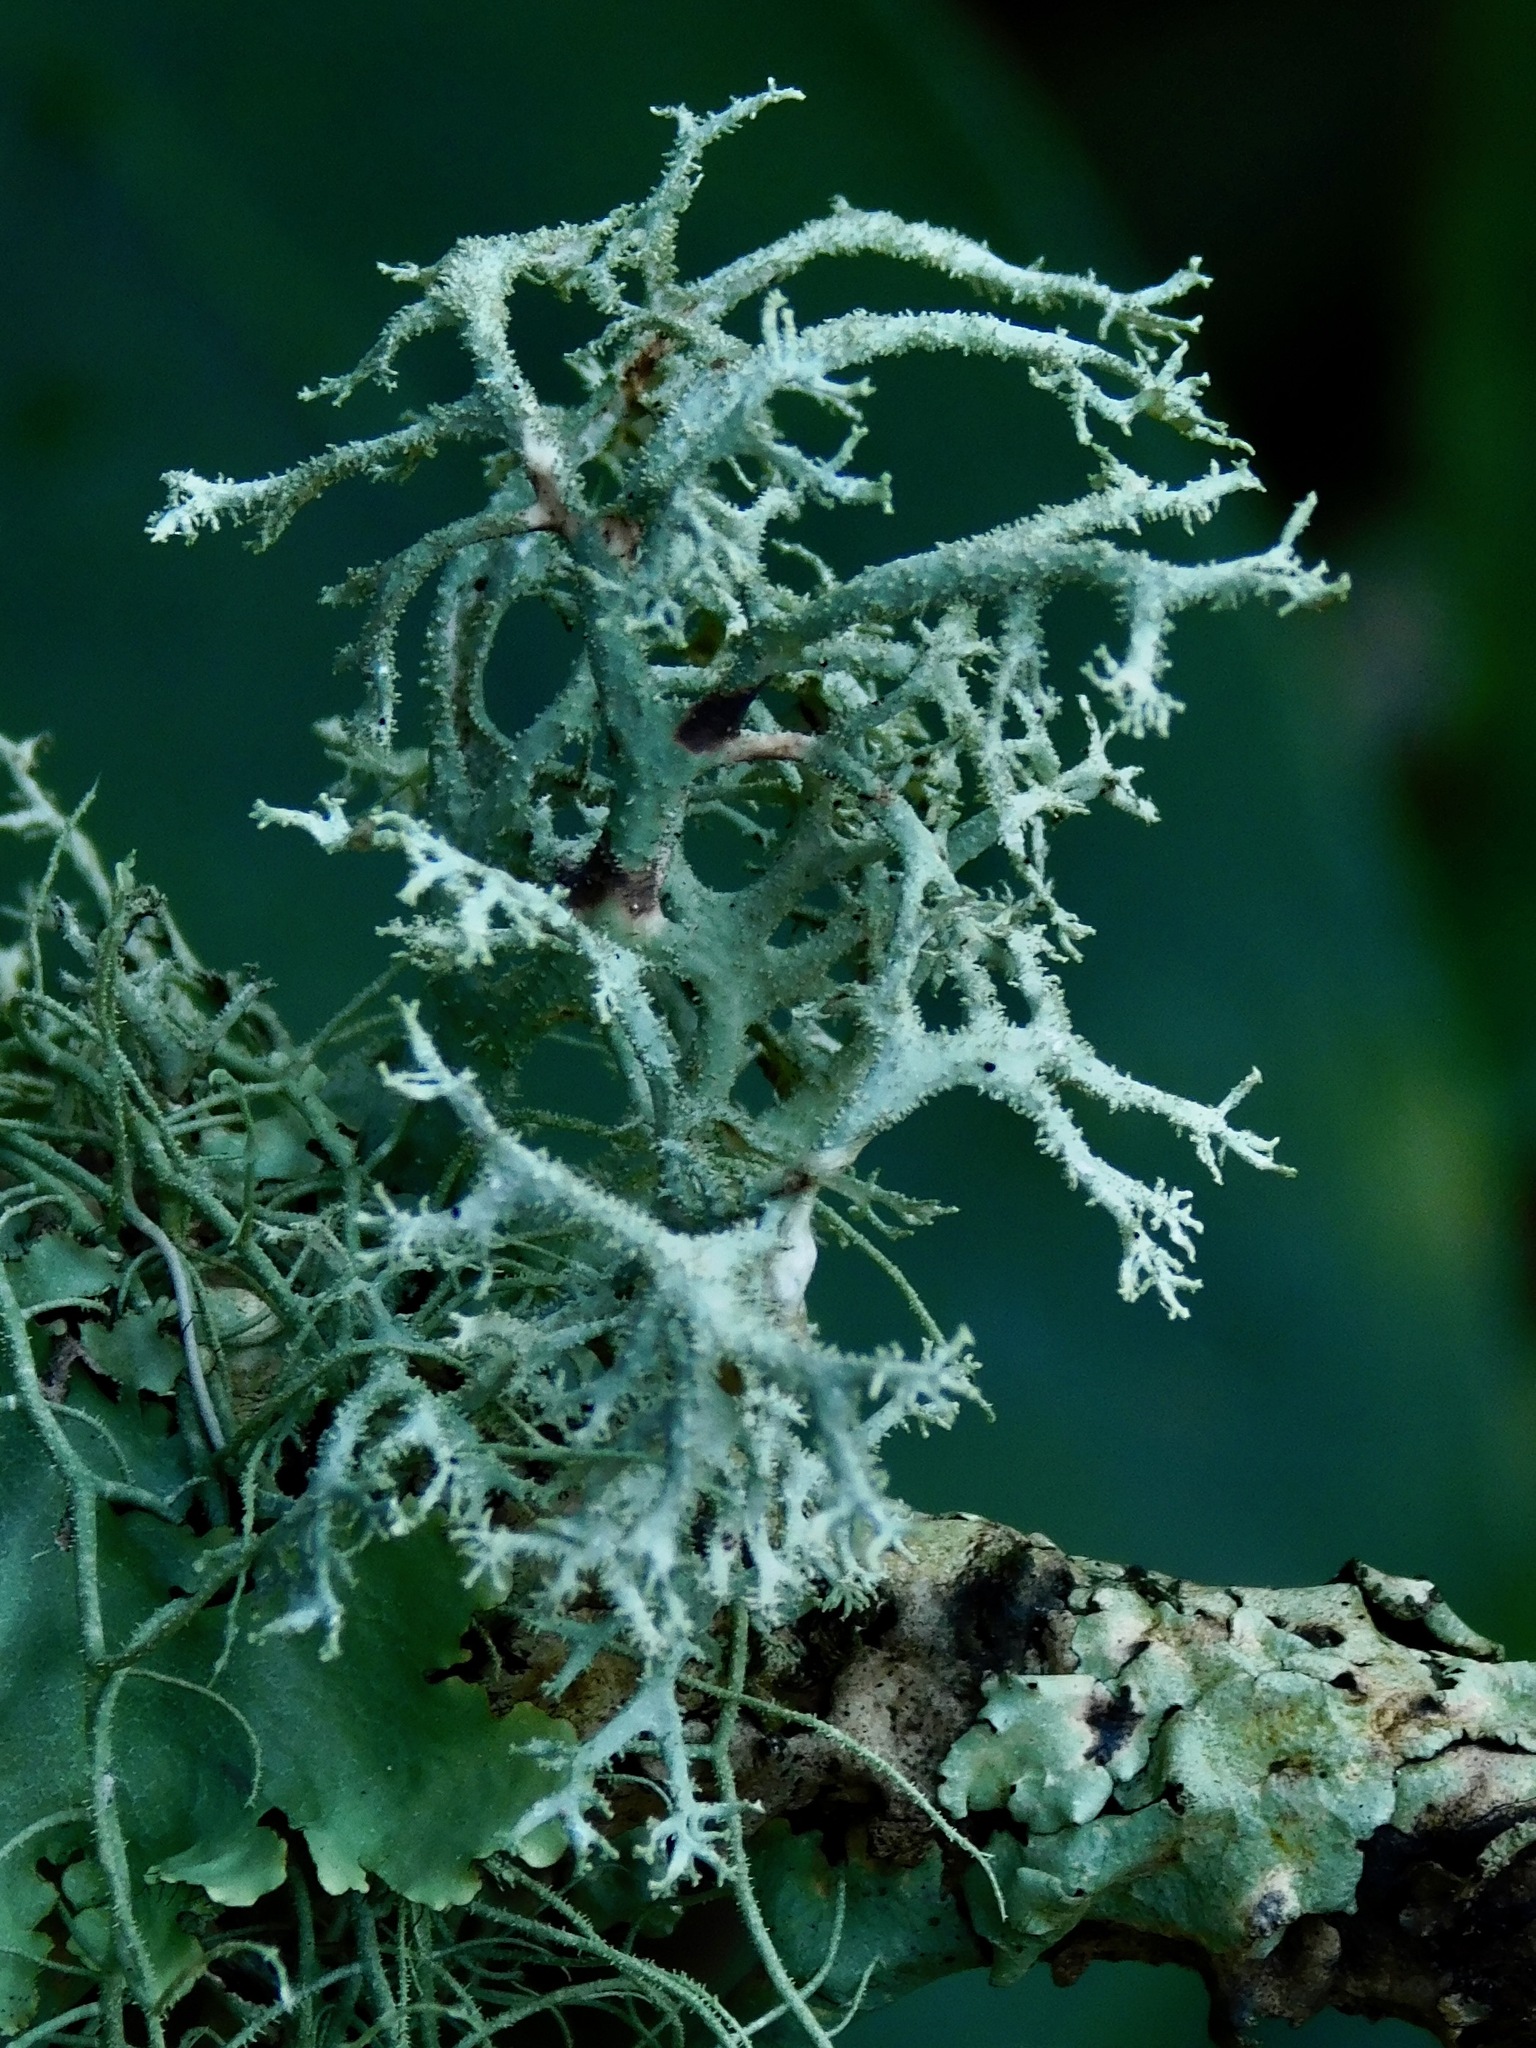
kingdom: Fungi
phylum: Ascomycota
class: Lecanoromycetes
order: Lecanorales
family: Parmeliaceae
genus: Pseudevernia
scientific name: Pseudevernia consocians
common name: Common antler lichen
